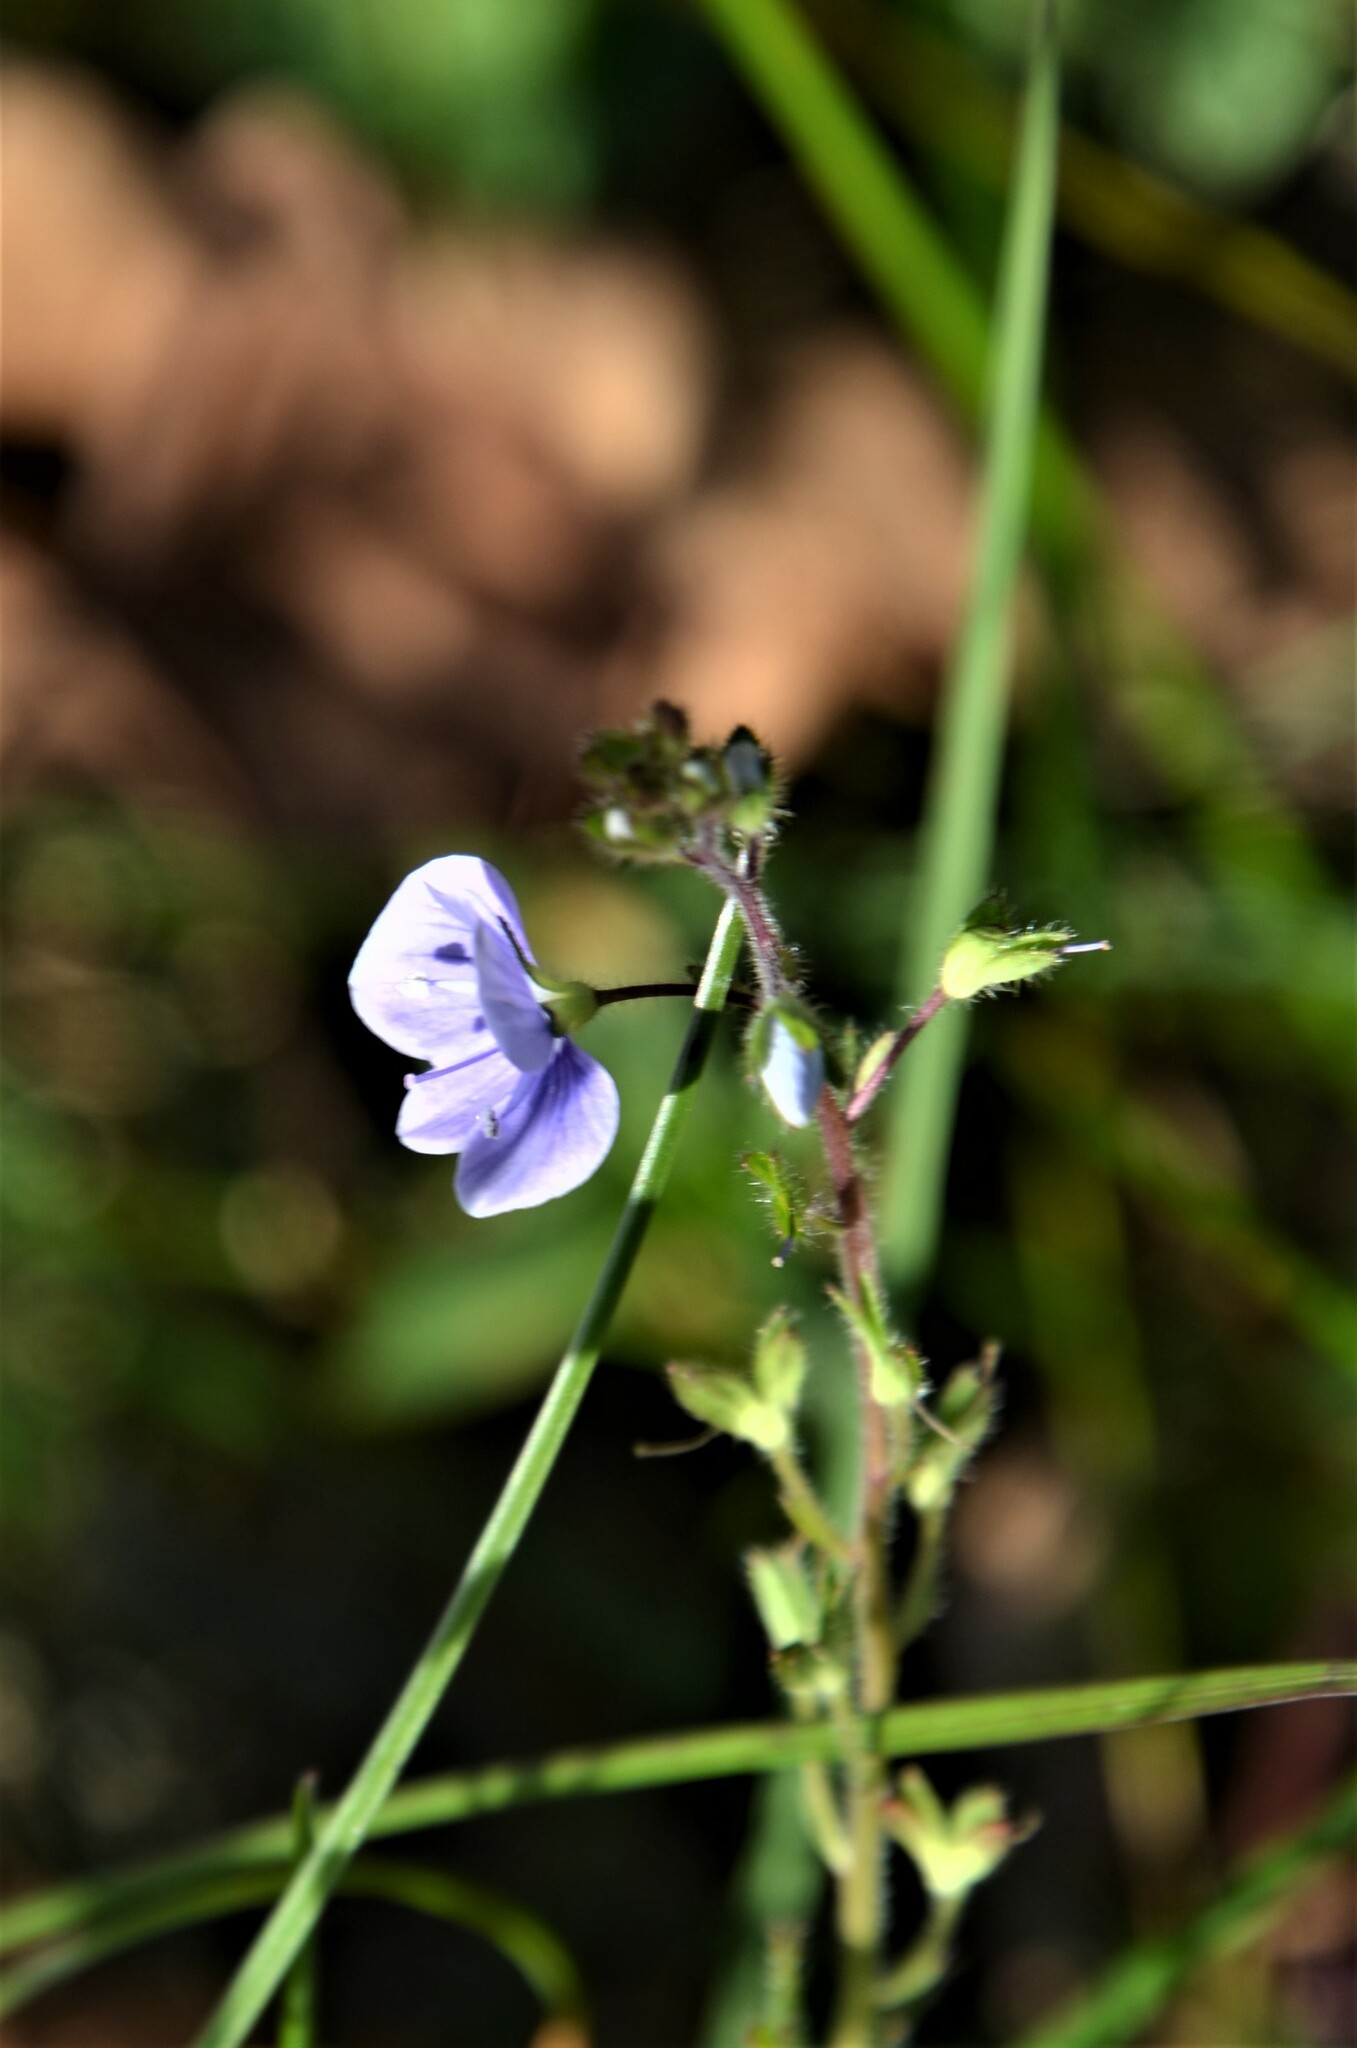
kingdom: Plantae
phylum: Tracheophyta
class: Magnoliopsida
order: Lamiales
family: Plantaginaceae
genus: Veronica
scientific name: Veronica chamaedrys
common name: Germander speedwell
